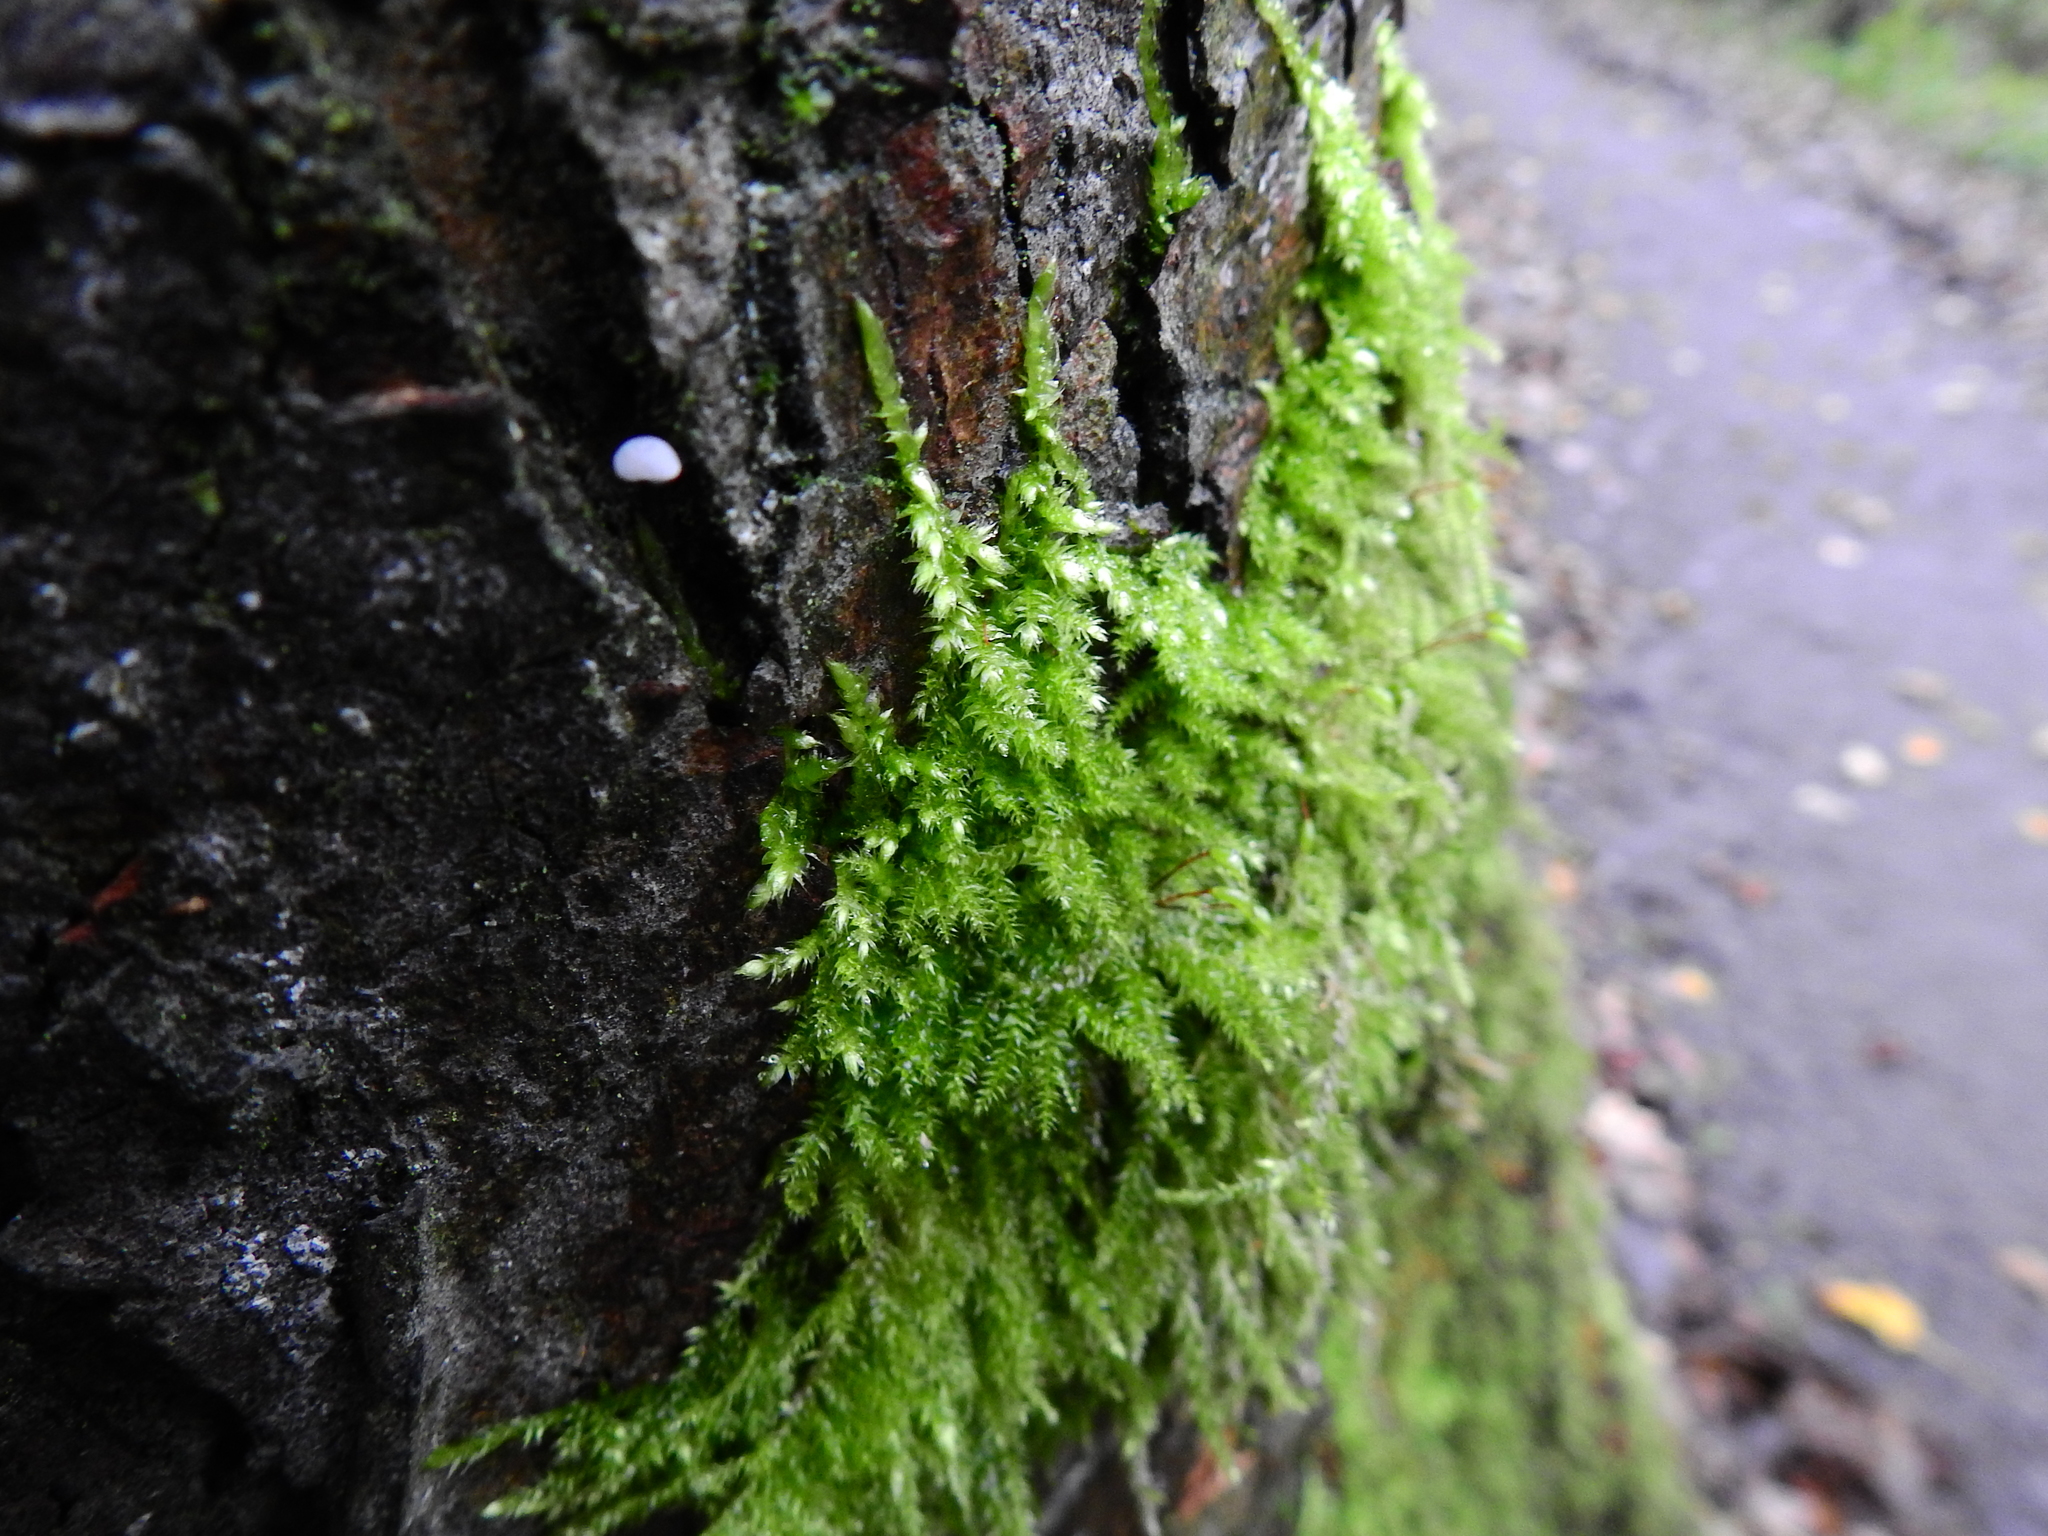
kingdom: Plantae
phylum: Bryophyta
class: Bryopsida
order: Hypnales
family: Brachytheciaceae
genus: Rhynchostegium
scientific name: Rhynchostegium confertum
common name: Clustered feather-moss
